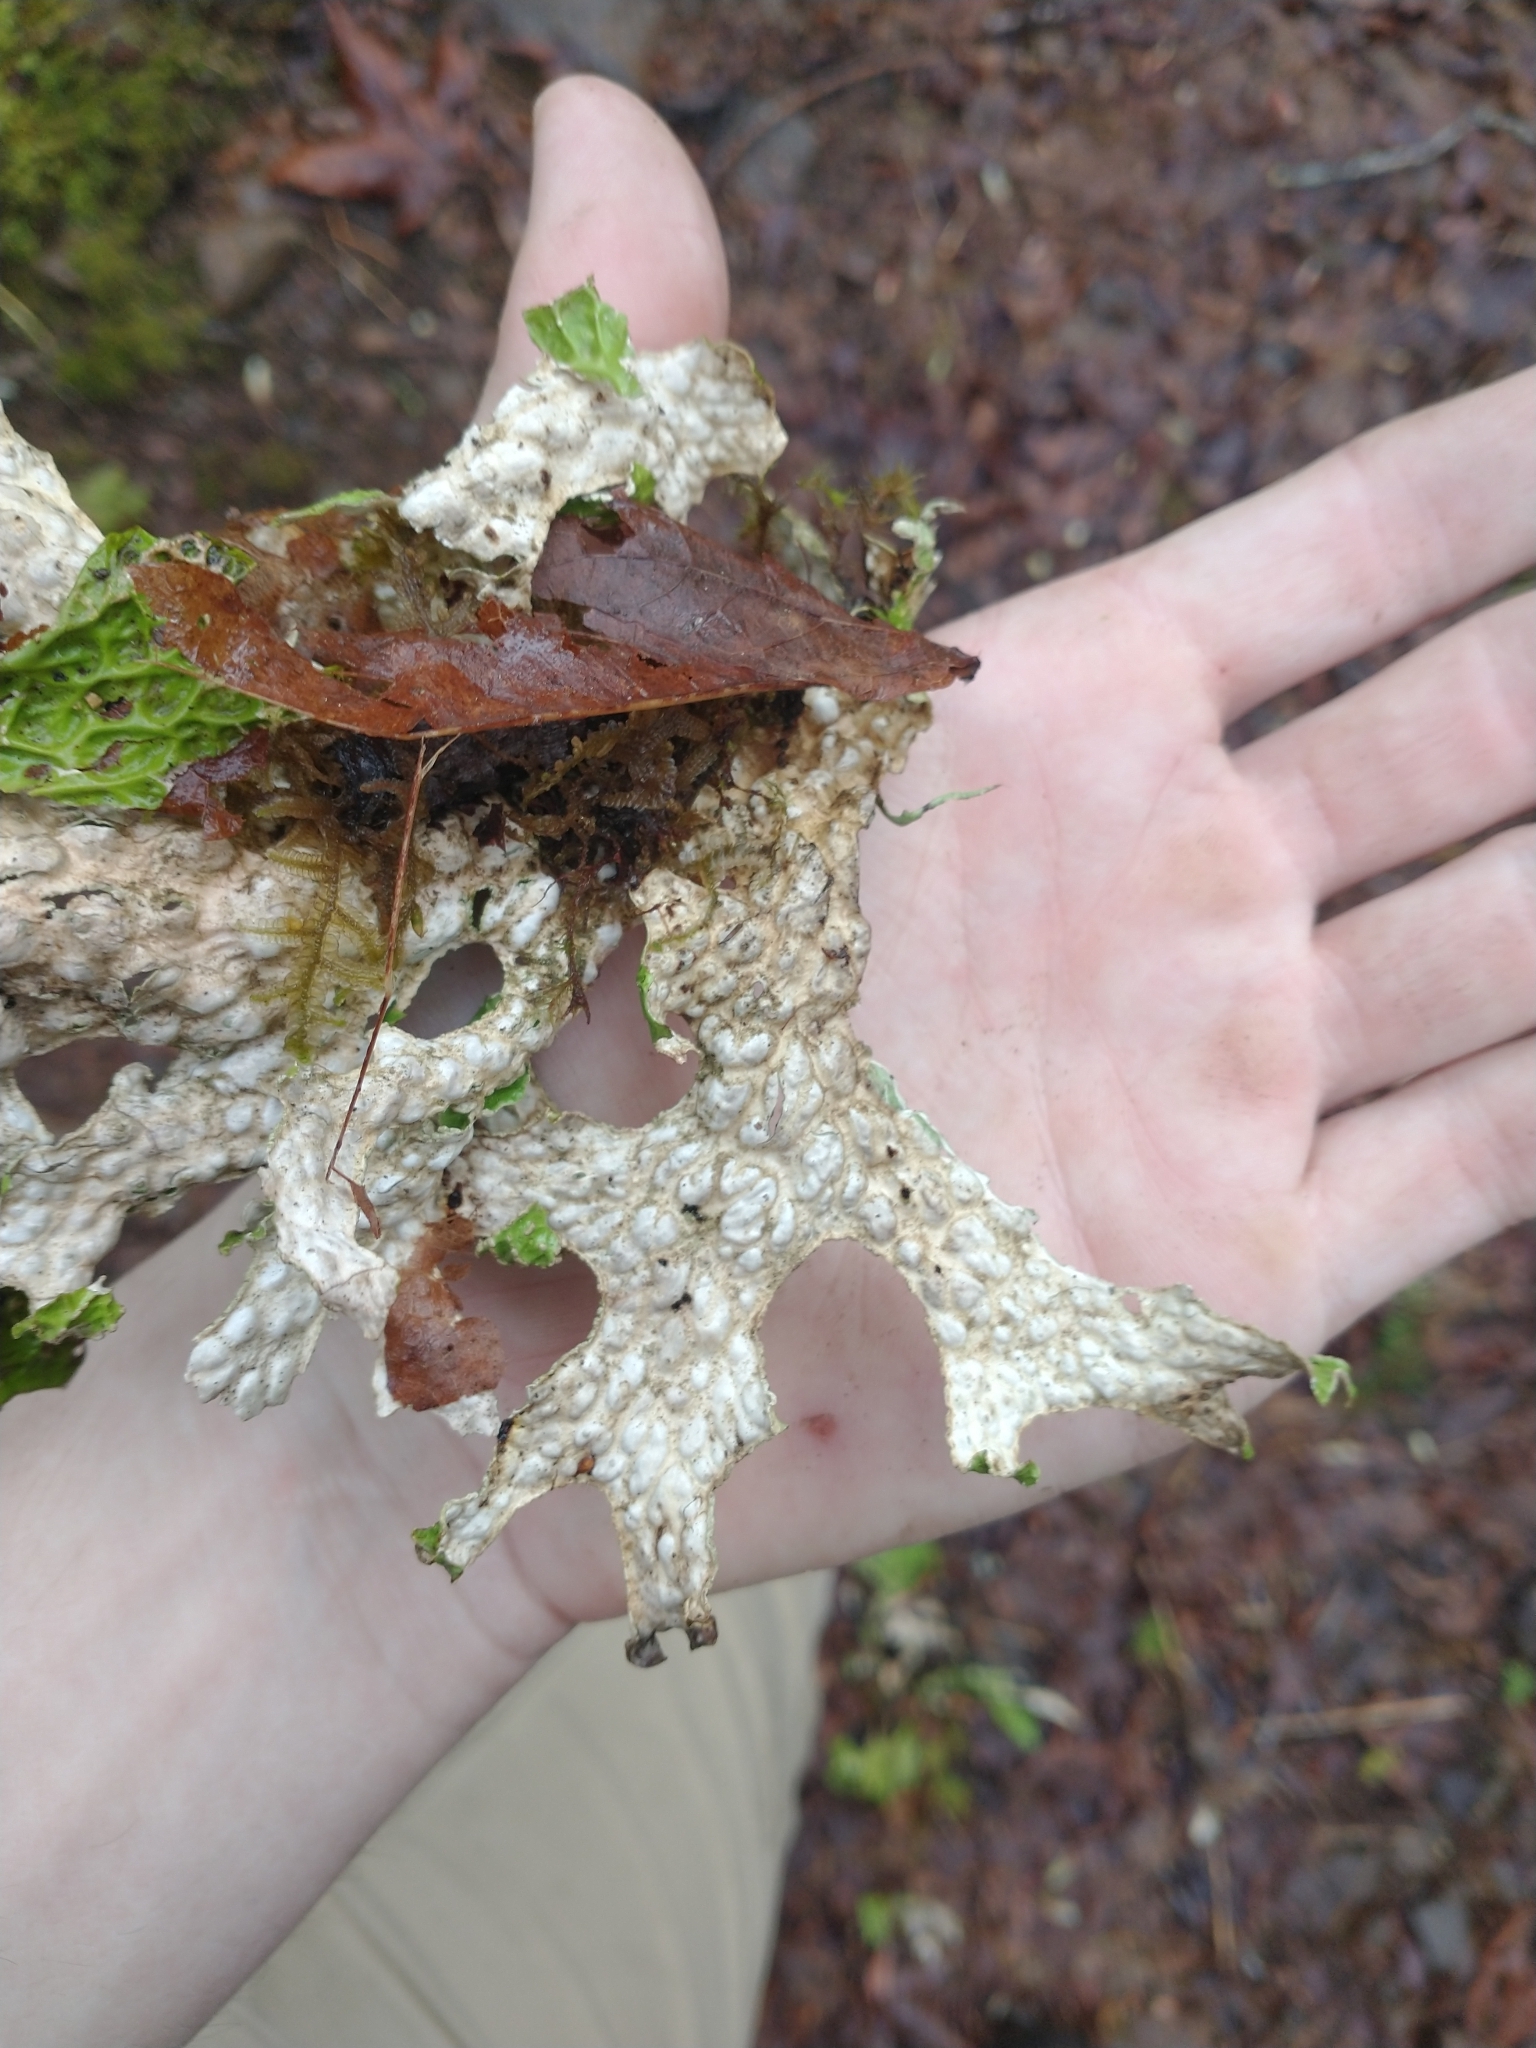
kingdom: Fungi
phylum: Ascomycota
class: Lecanoromycetes
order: Peltigerales
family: Lobariaceae
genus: Lobaria
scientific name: Lobaria pulmonaria
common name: Lungwort
